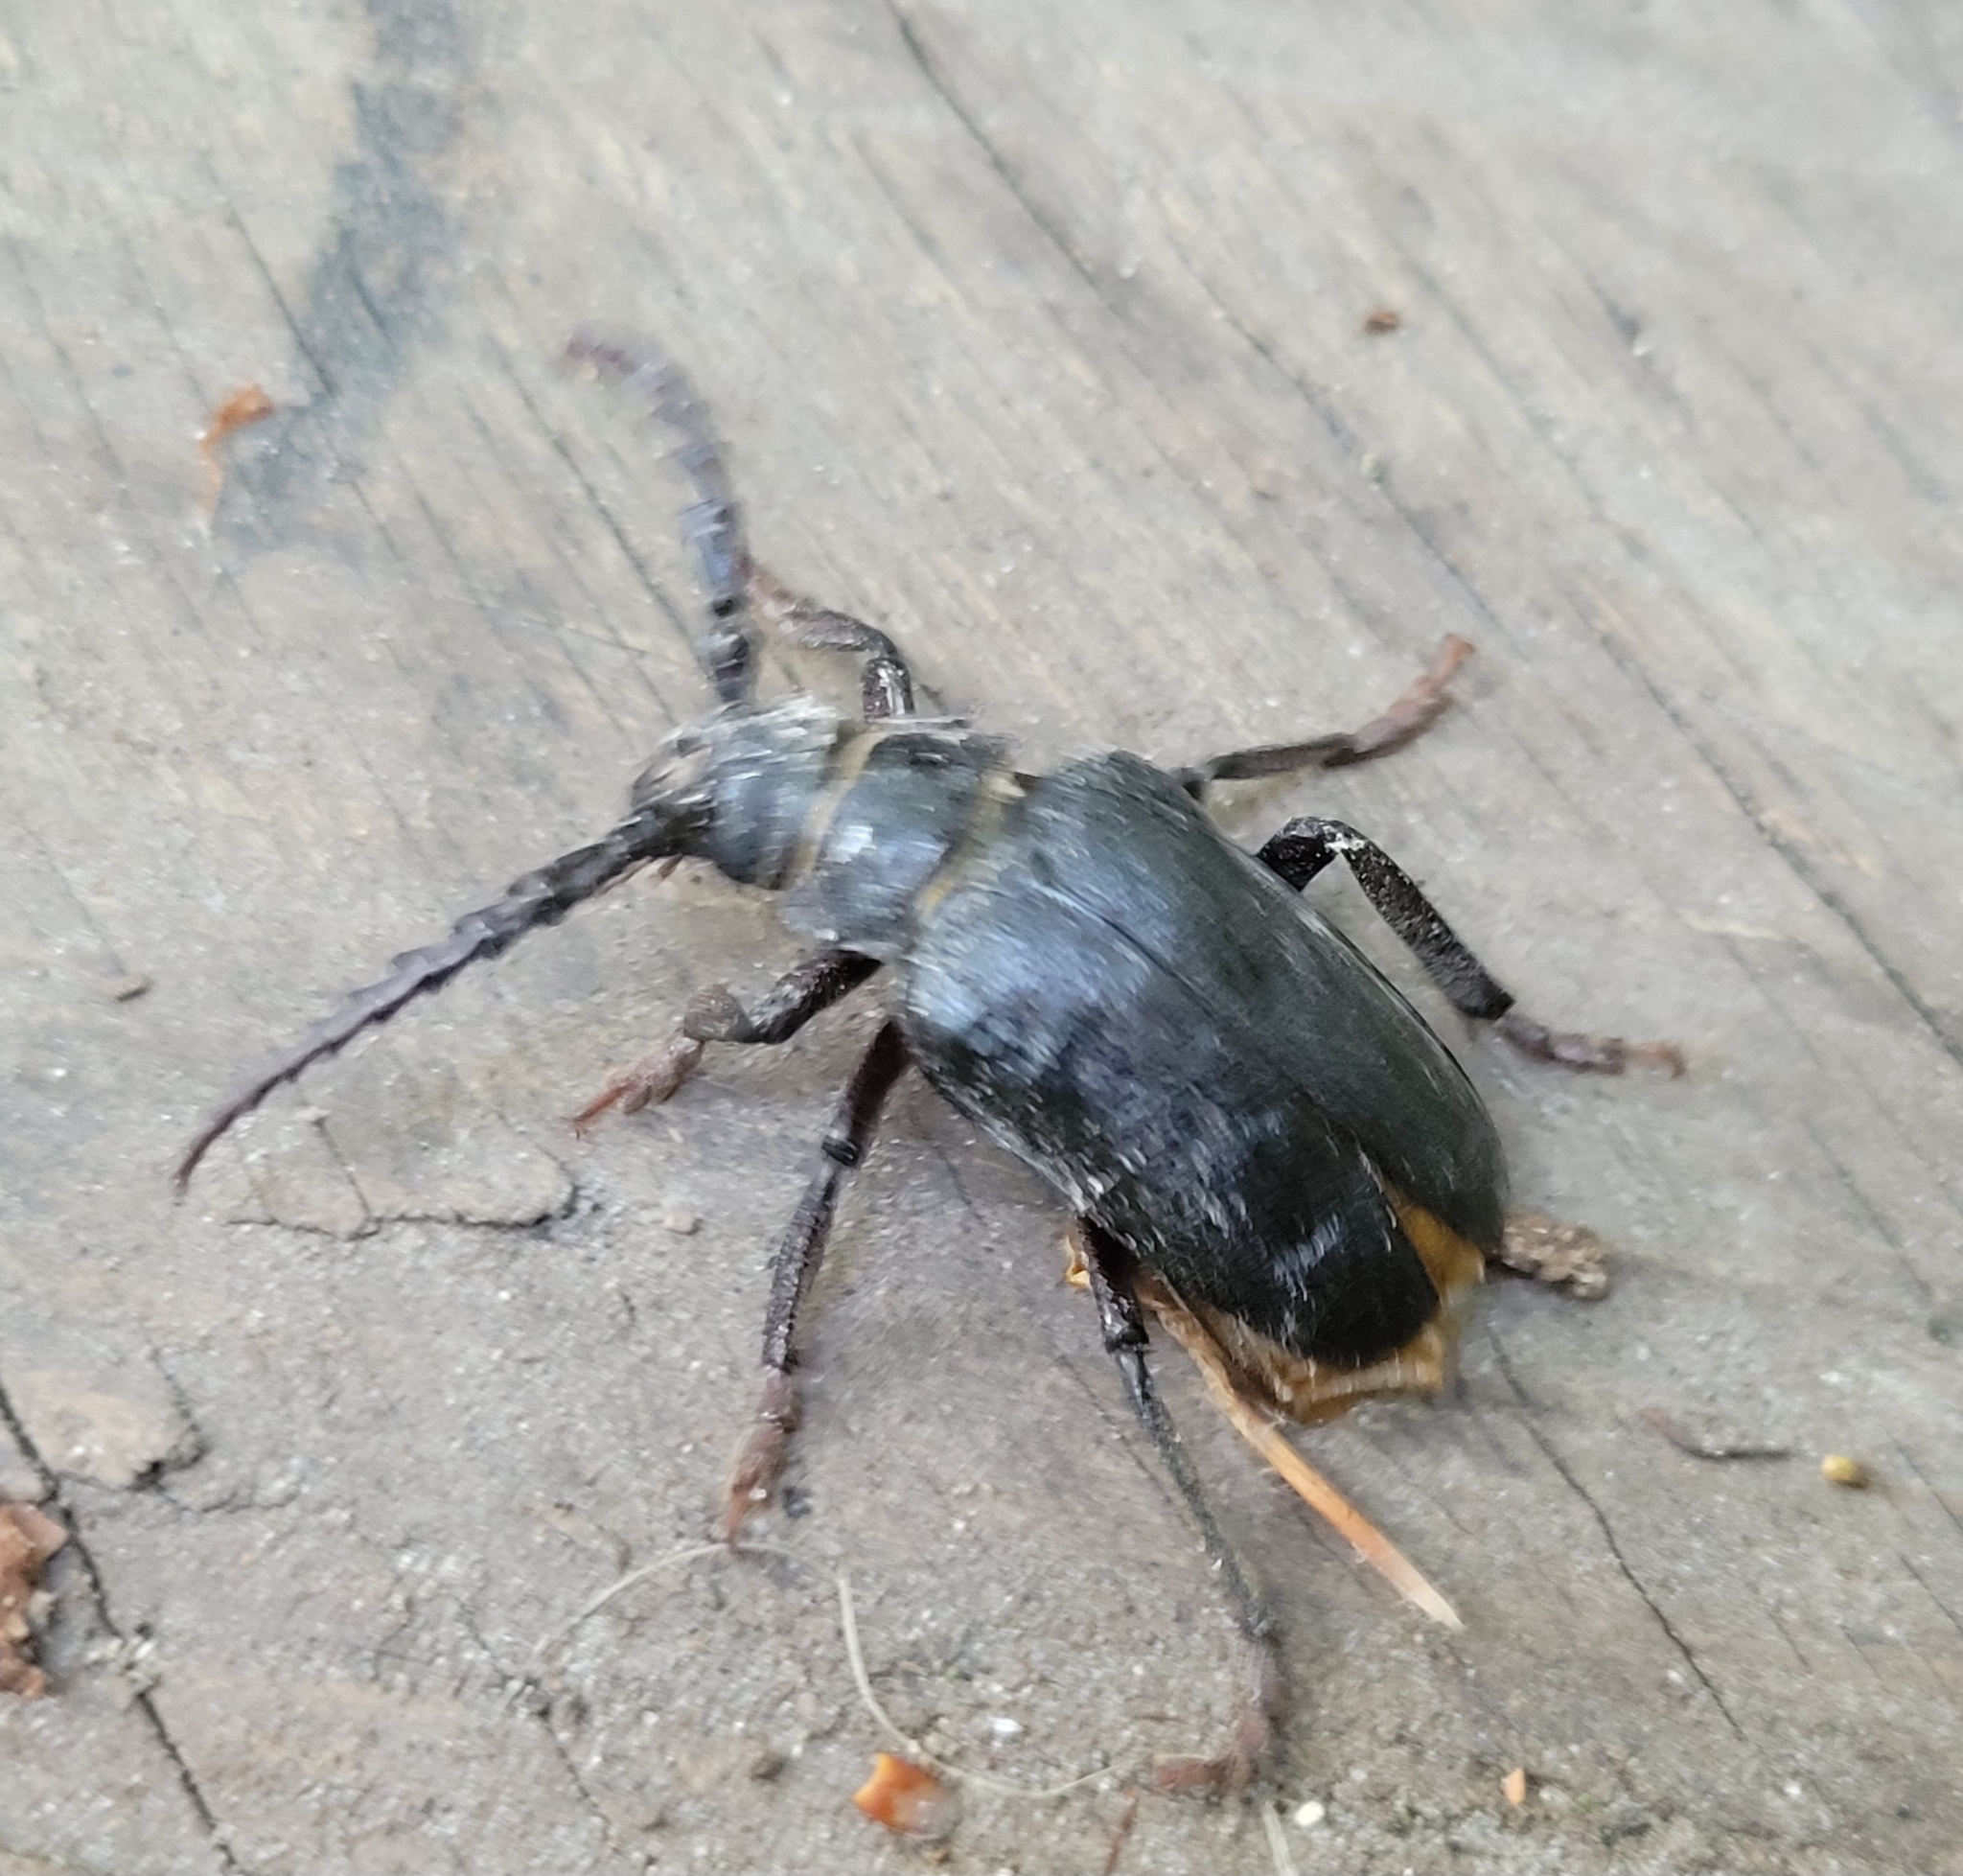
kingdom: Animalia
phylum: Arthropoda
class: Insecta
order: Coleoptera
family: Cerambycidae
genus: Prionus
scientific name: Prionus coriarius
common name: Tanner beetle
